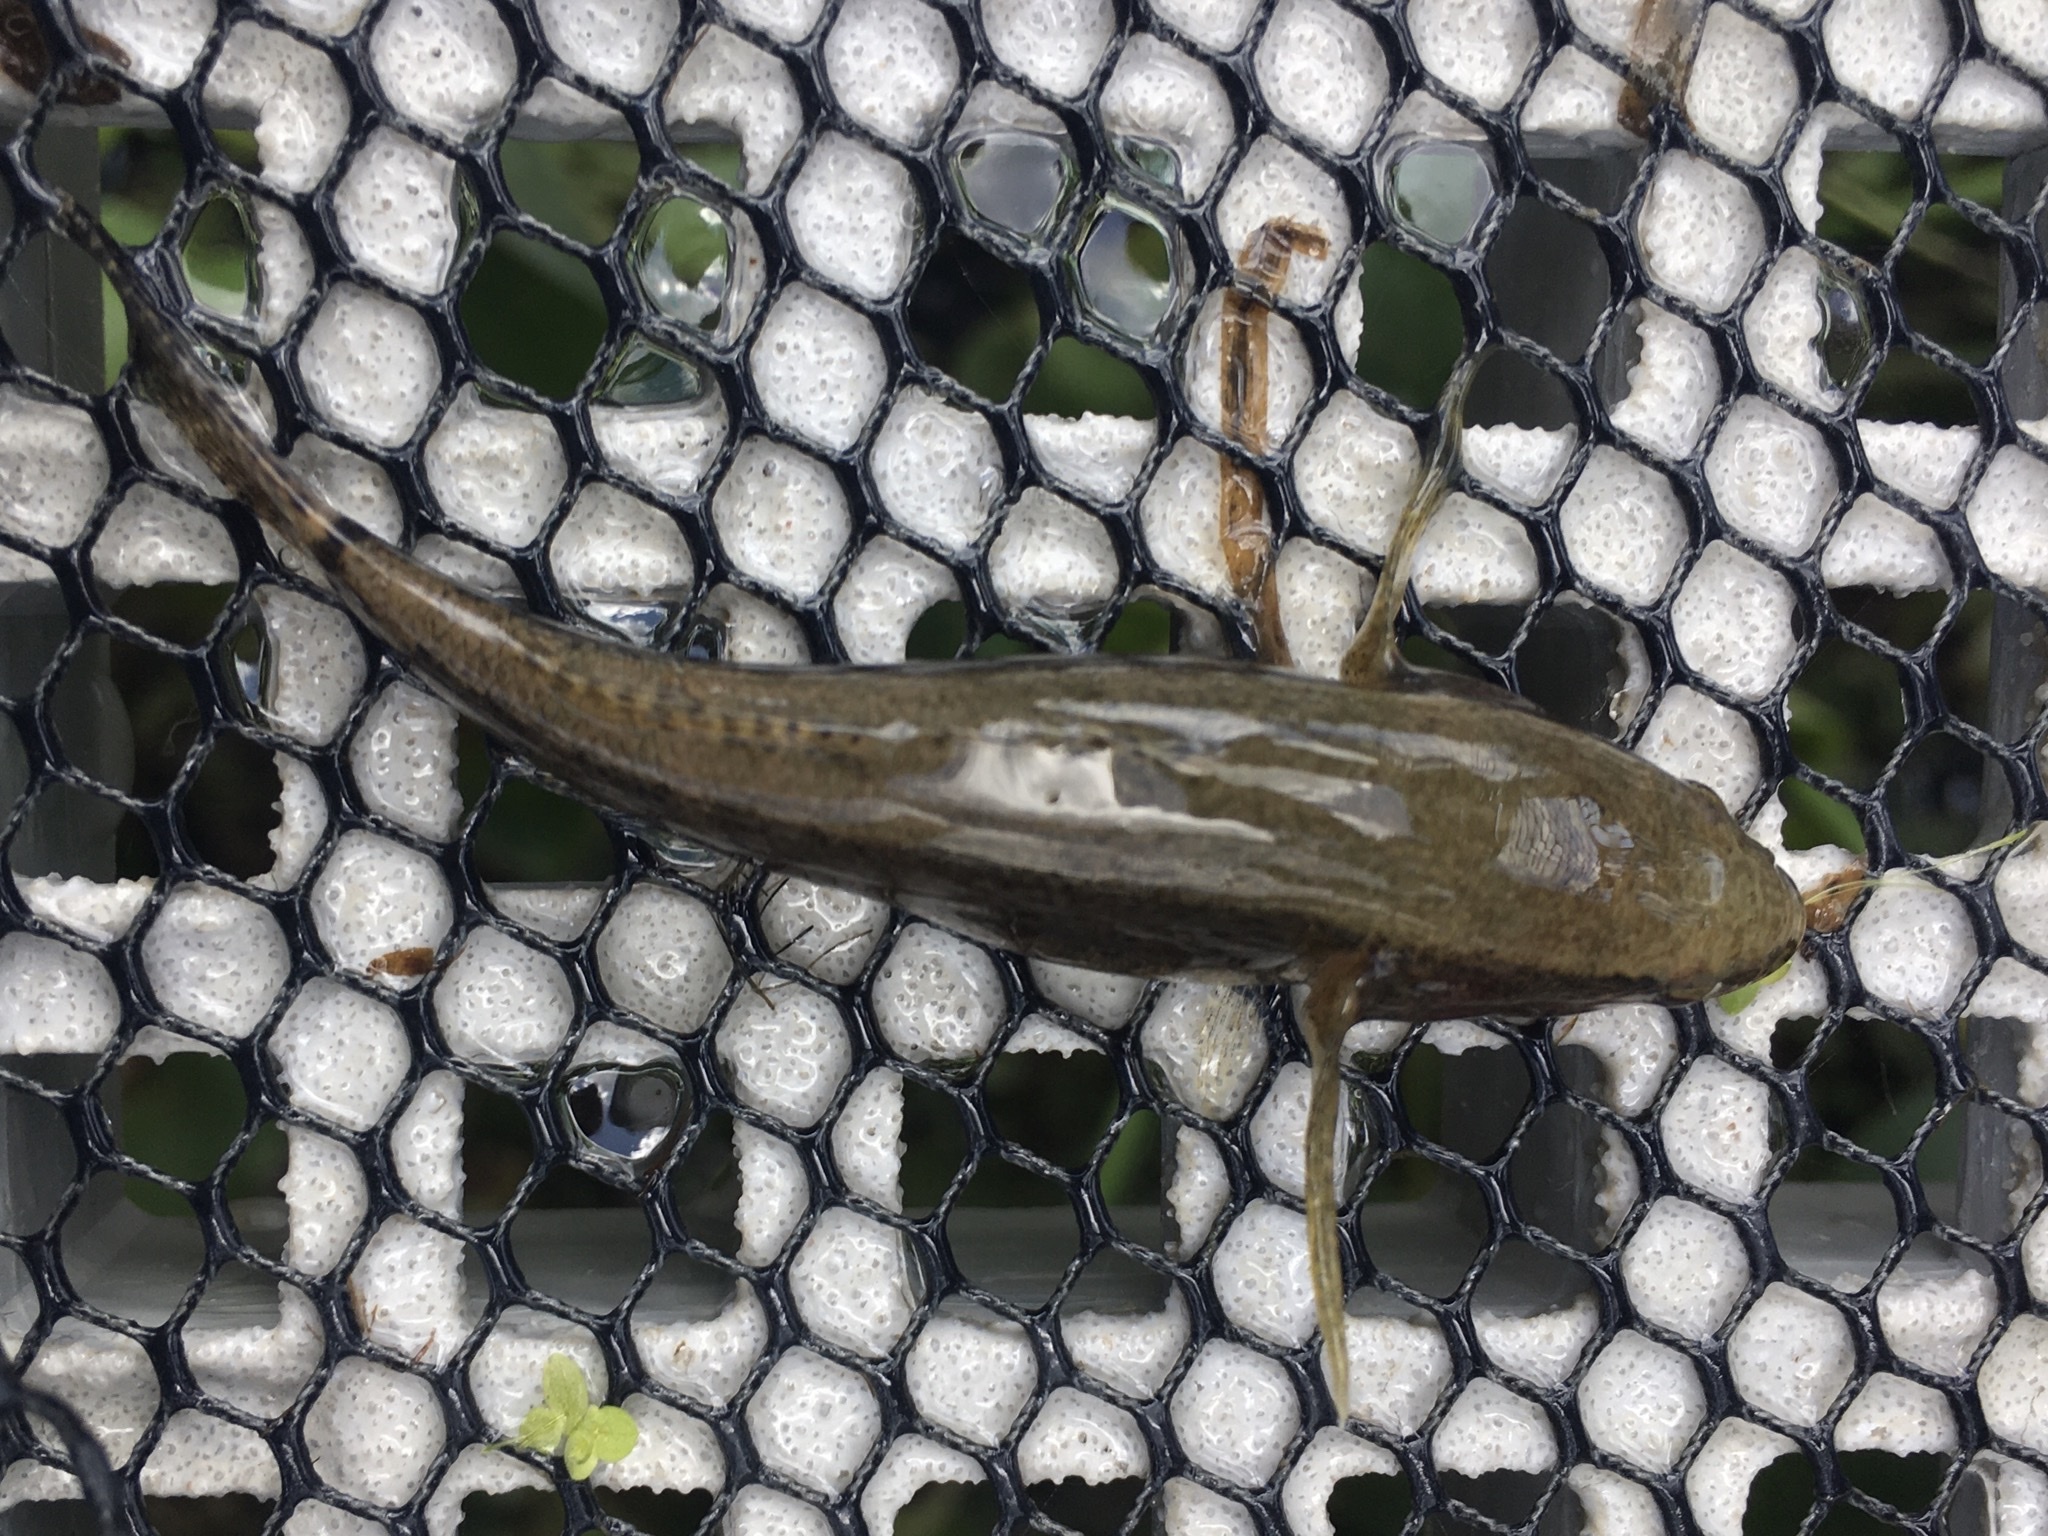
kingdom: Animalia
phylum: Chordata
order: Perciformes
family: Eleotridae
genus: Eleotris
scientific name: Eleotris amblyopsis
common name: Largescaled spinycheek sleeper
